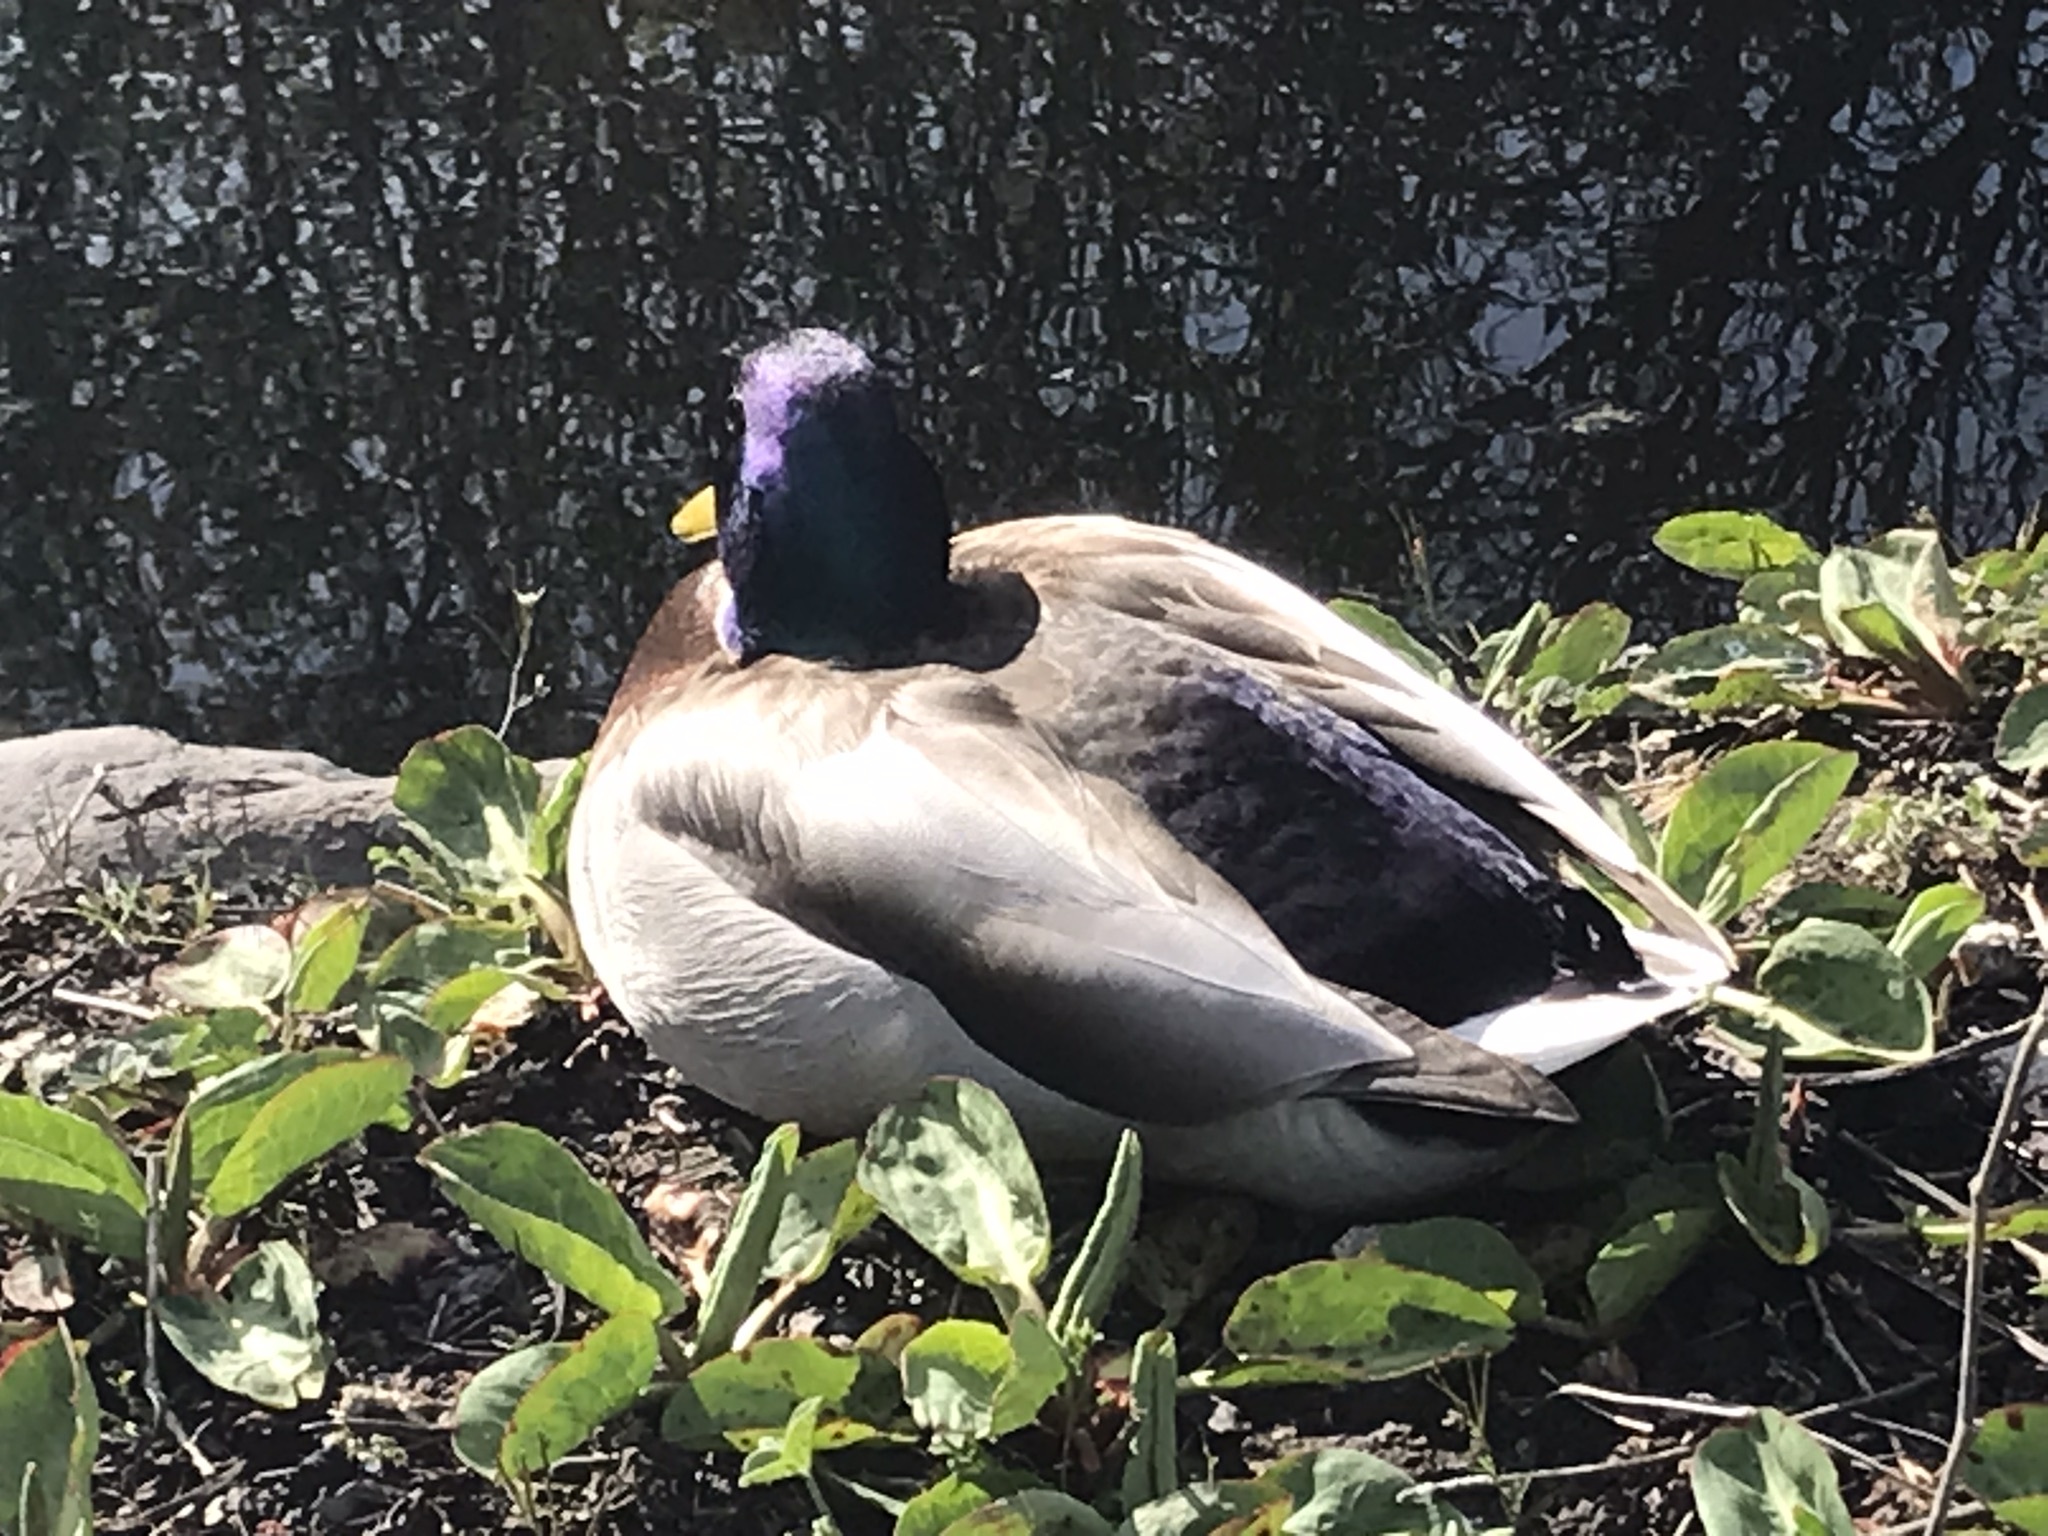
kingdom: Animalia
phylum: Chordata
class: Aves
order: Anseriformes
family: Anatidae
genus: Anas
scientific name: Anas platyrhynchos
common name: Mallard
